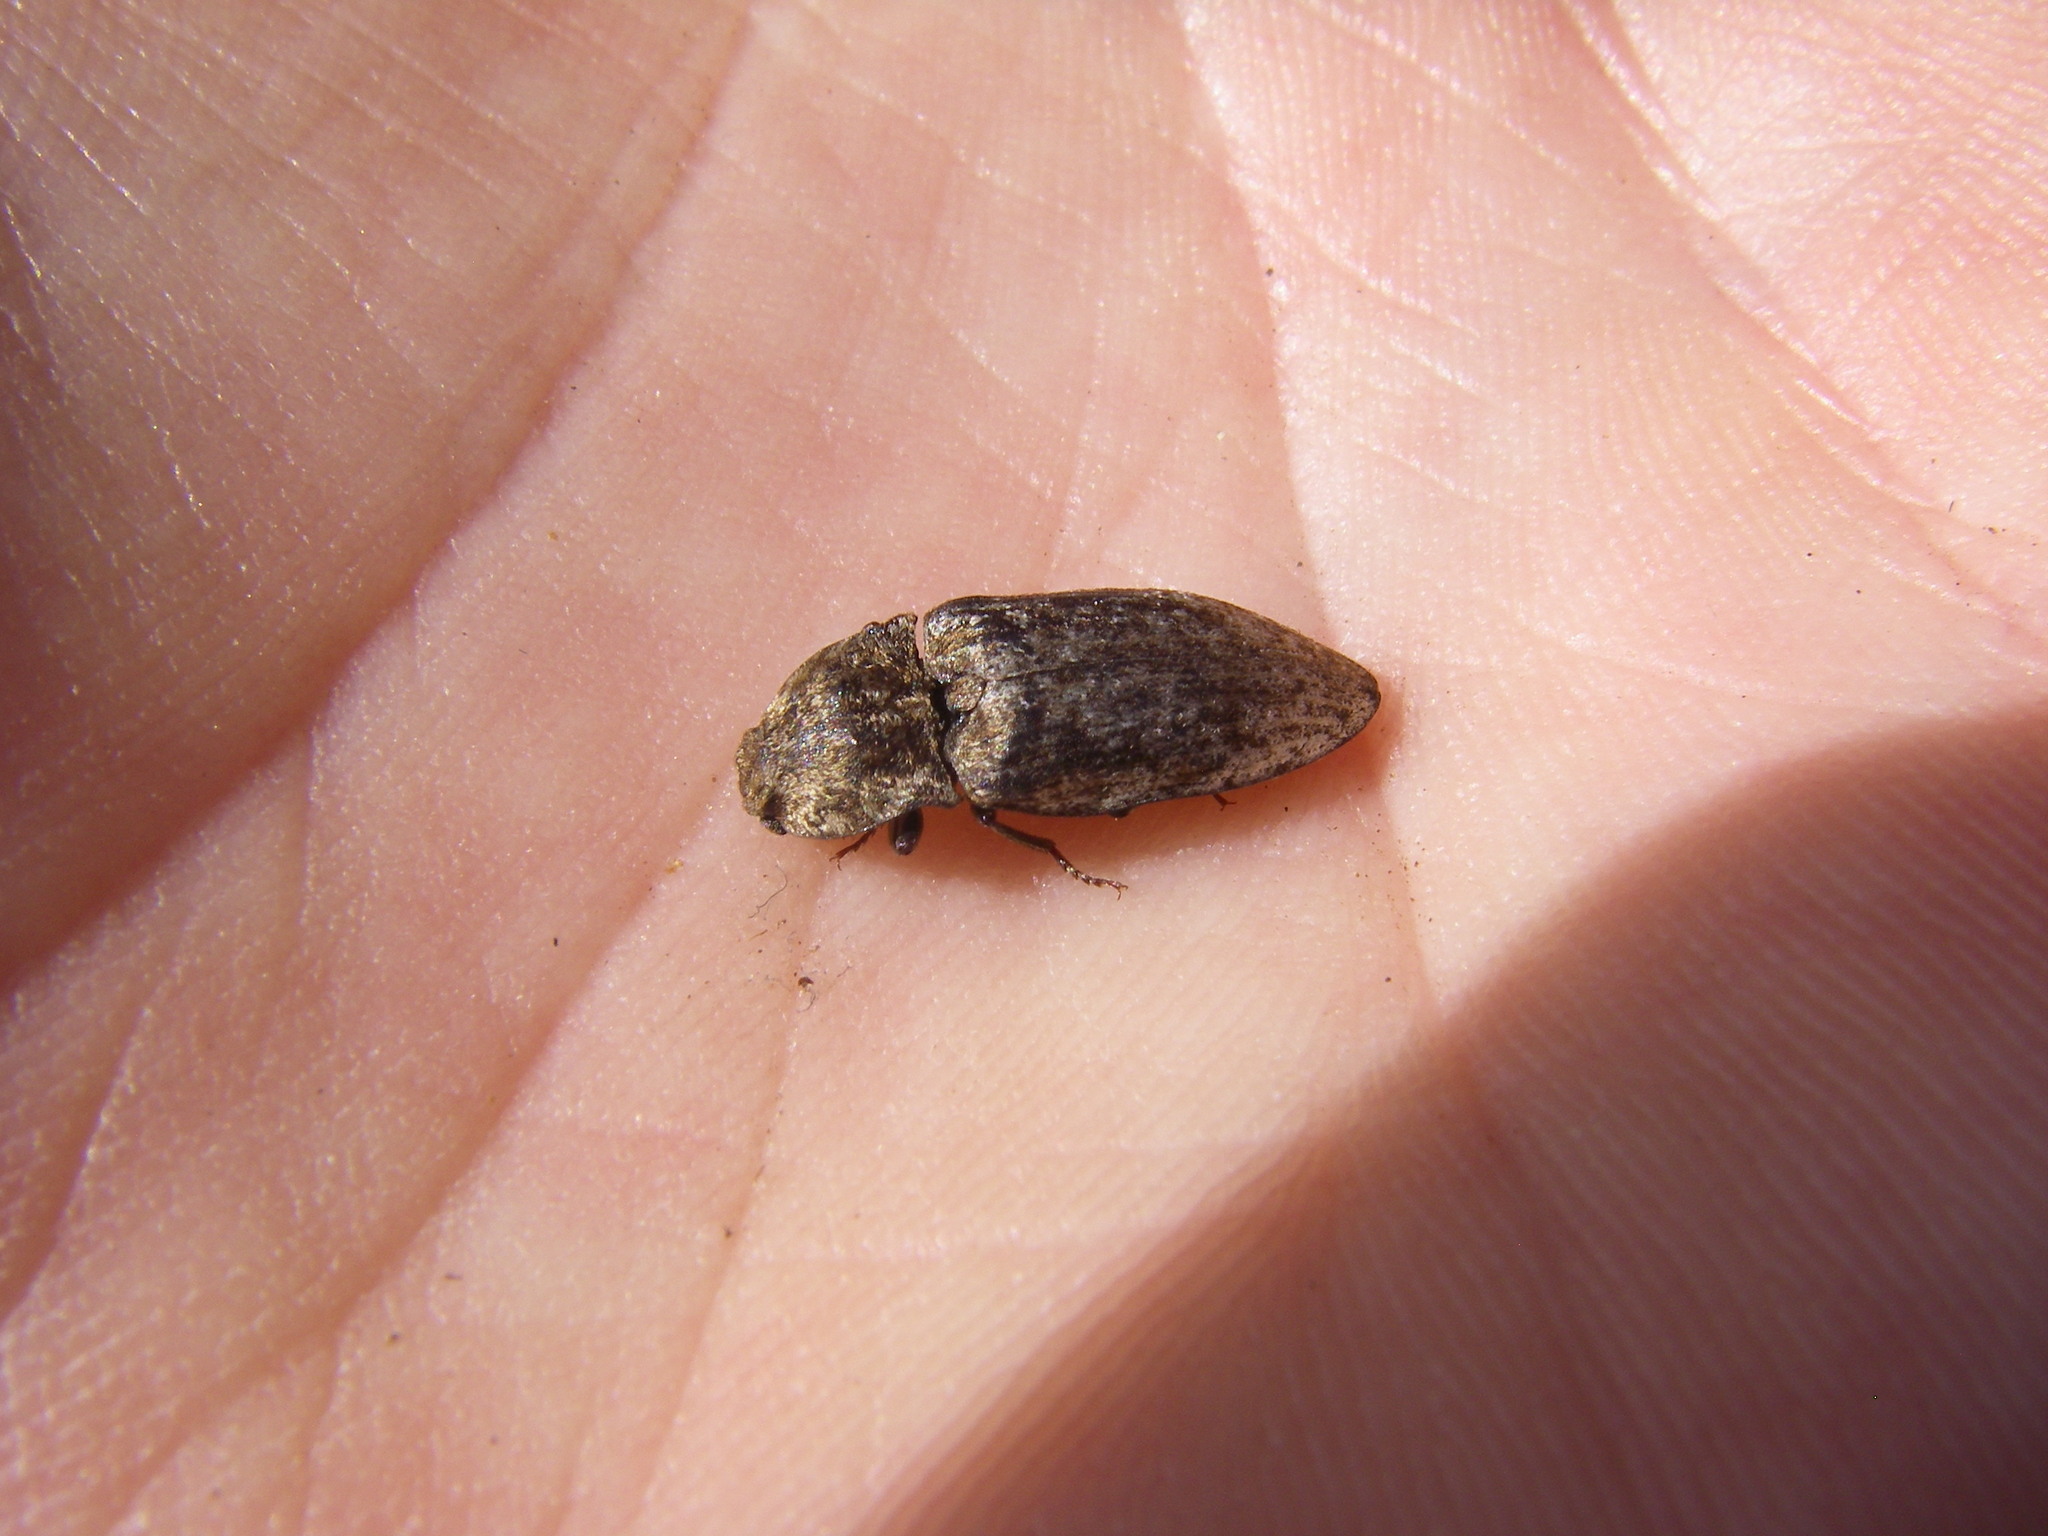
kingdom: Animalia
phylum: Arthropoda
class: Insecta
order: Coleoptera
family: Elateridae
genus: Agrypnus
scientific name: Agrypnus murinus
